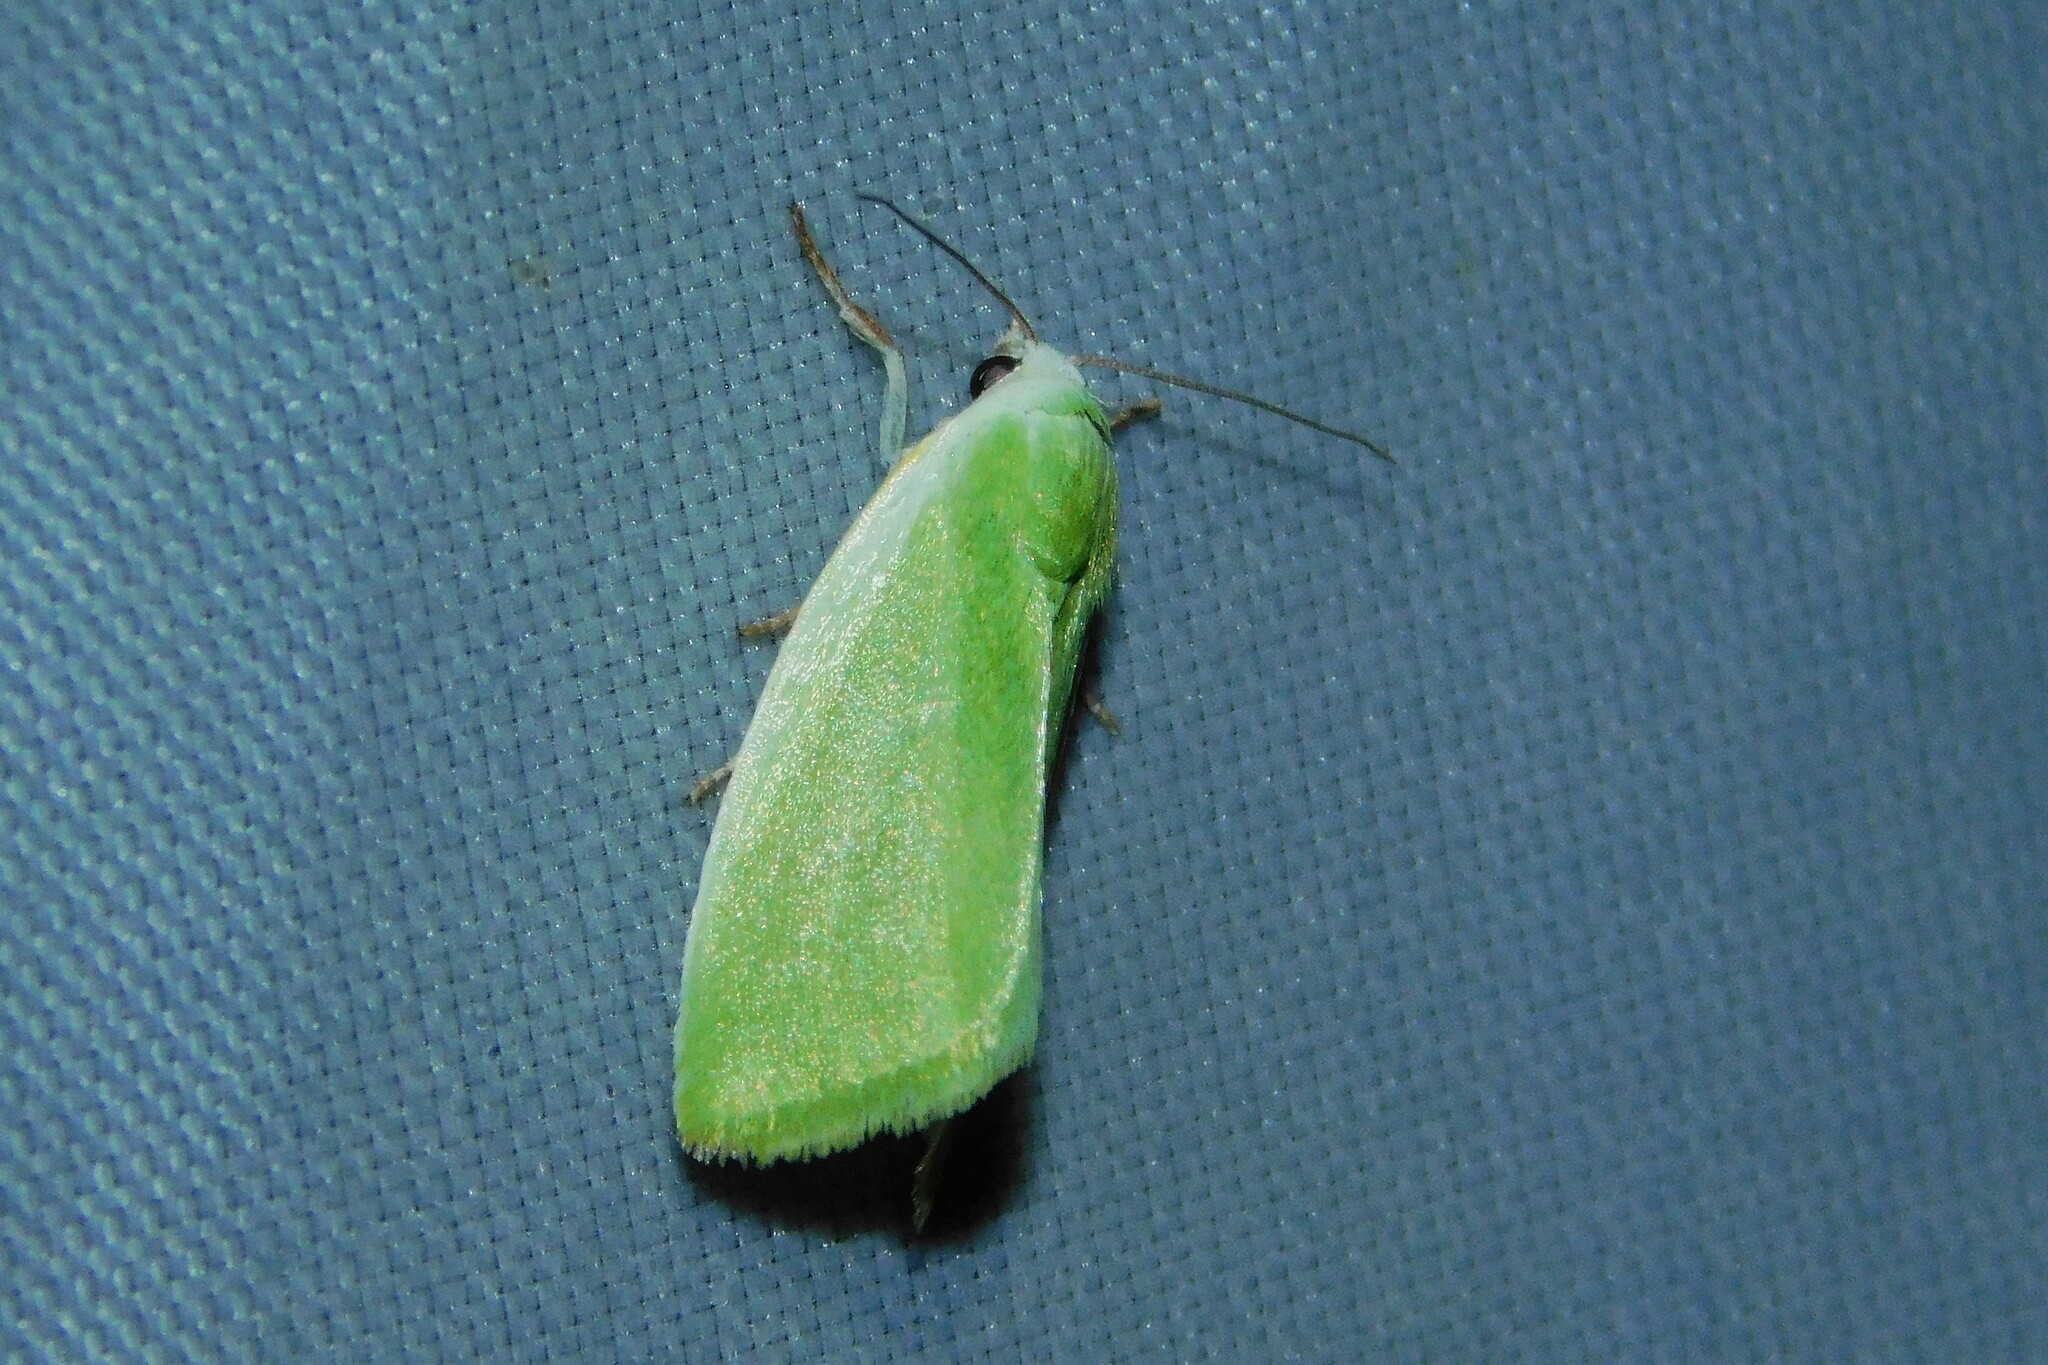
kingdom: Animalia
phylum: Arthropoda
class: Insecta
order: Lepidoptera
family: Nolidae
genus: Earias
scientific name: Earias clorana
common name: Cream-bordered green pea
